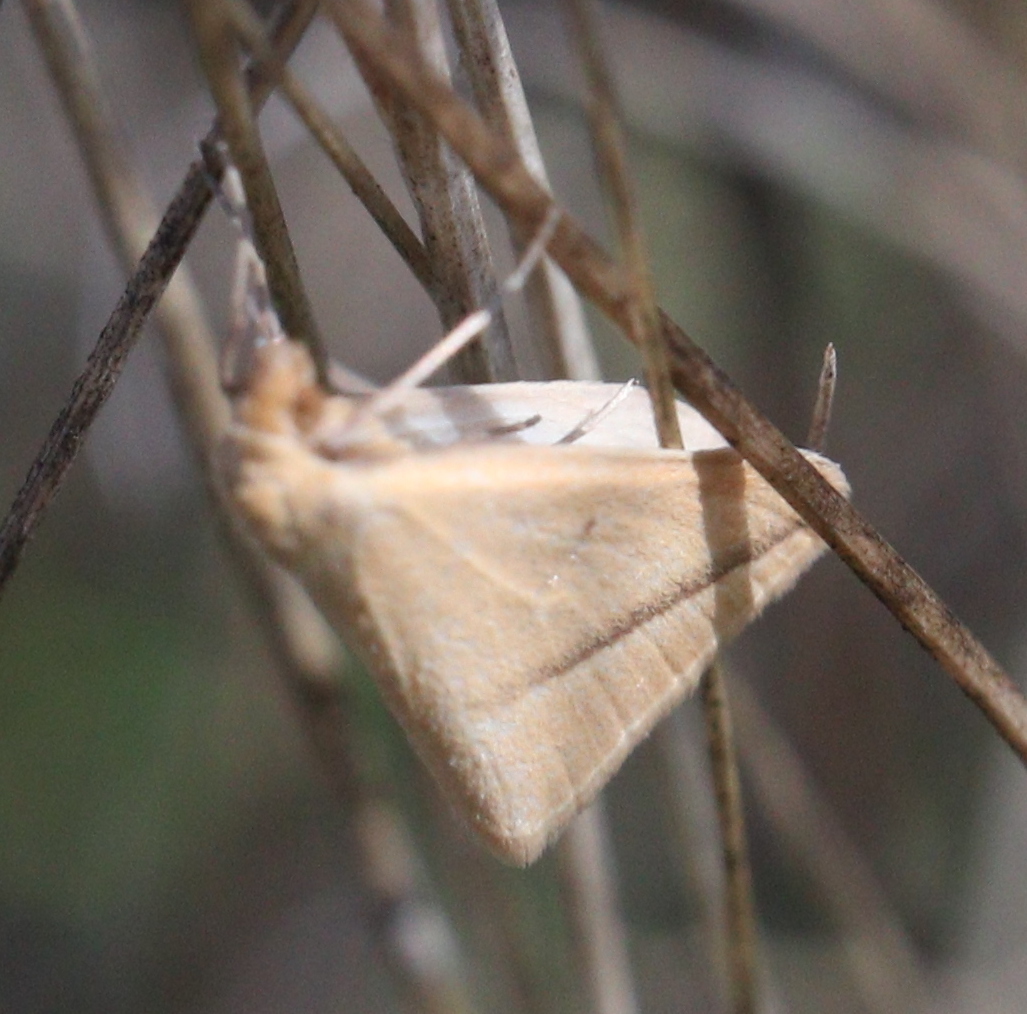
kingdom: Animalia
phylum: Arthropoda
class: Insecta
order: Lepidoptera
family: Geometridae
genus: Rhodometra
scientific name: Rhodometra sacraria
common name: Vestal
